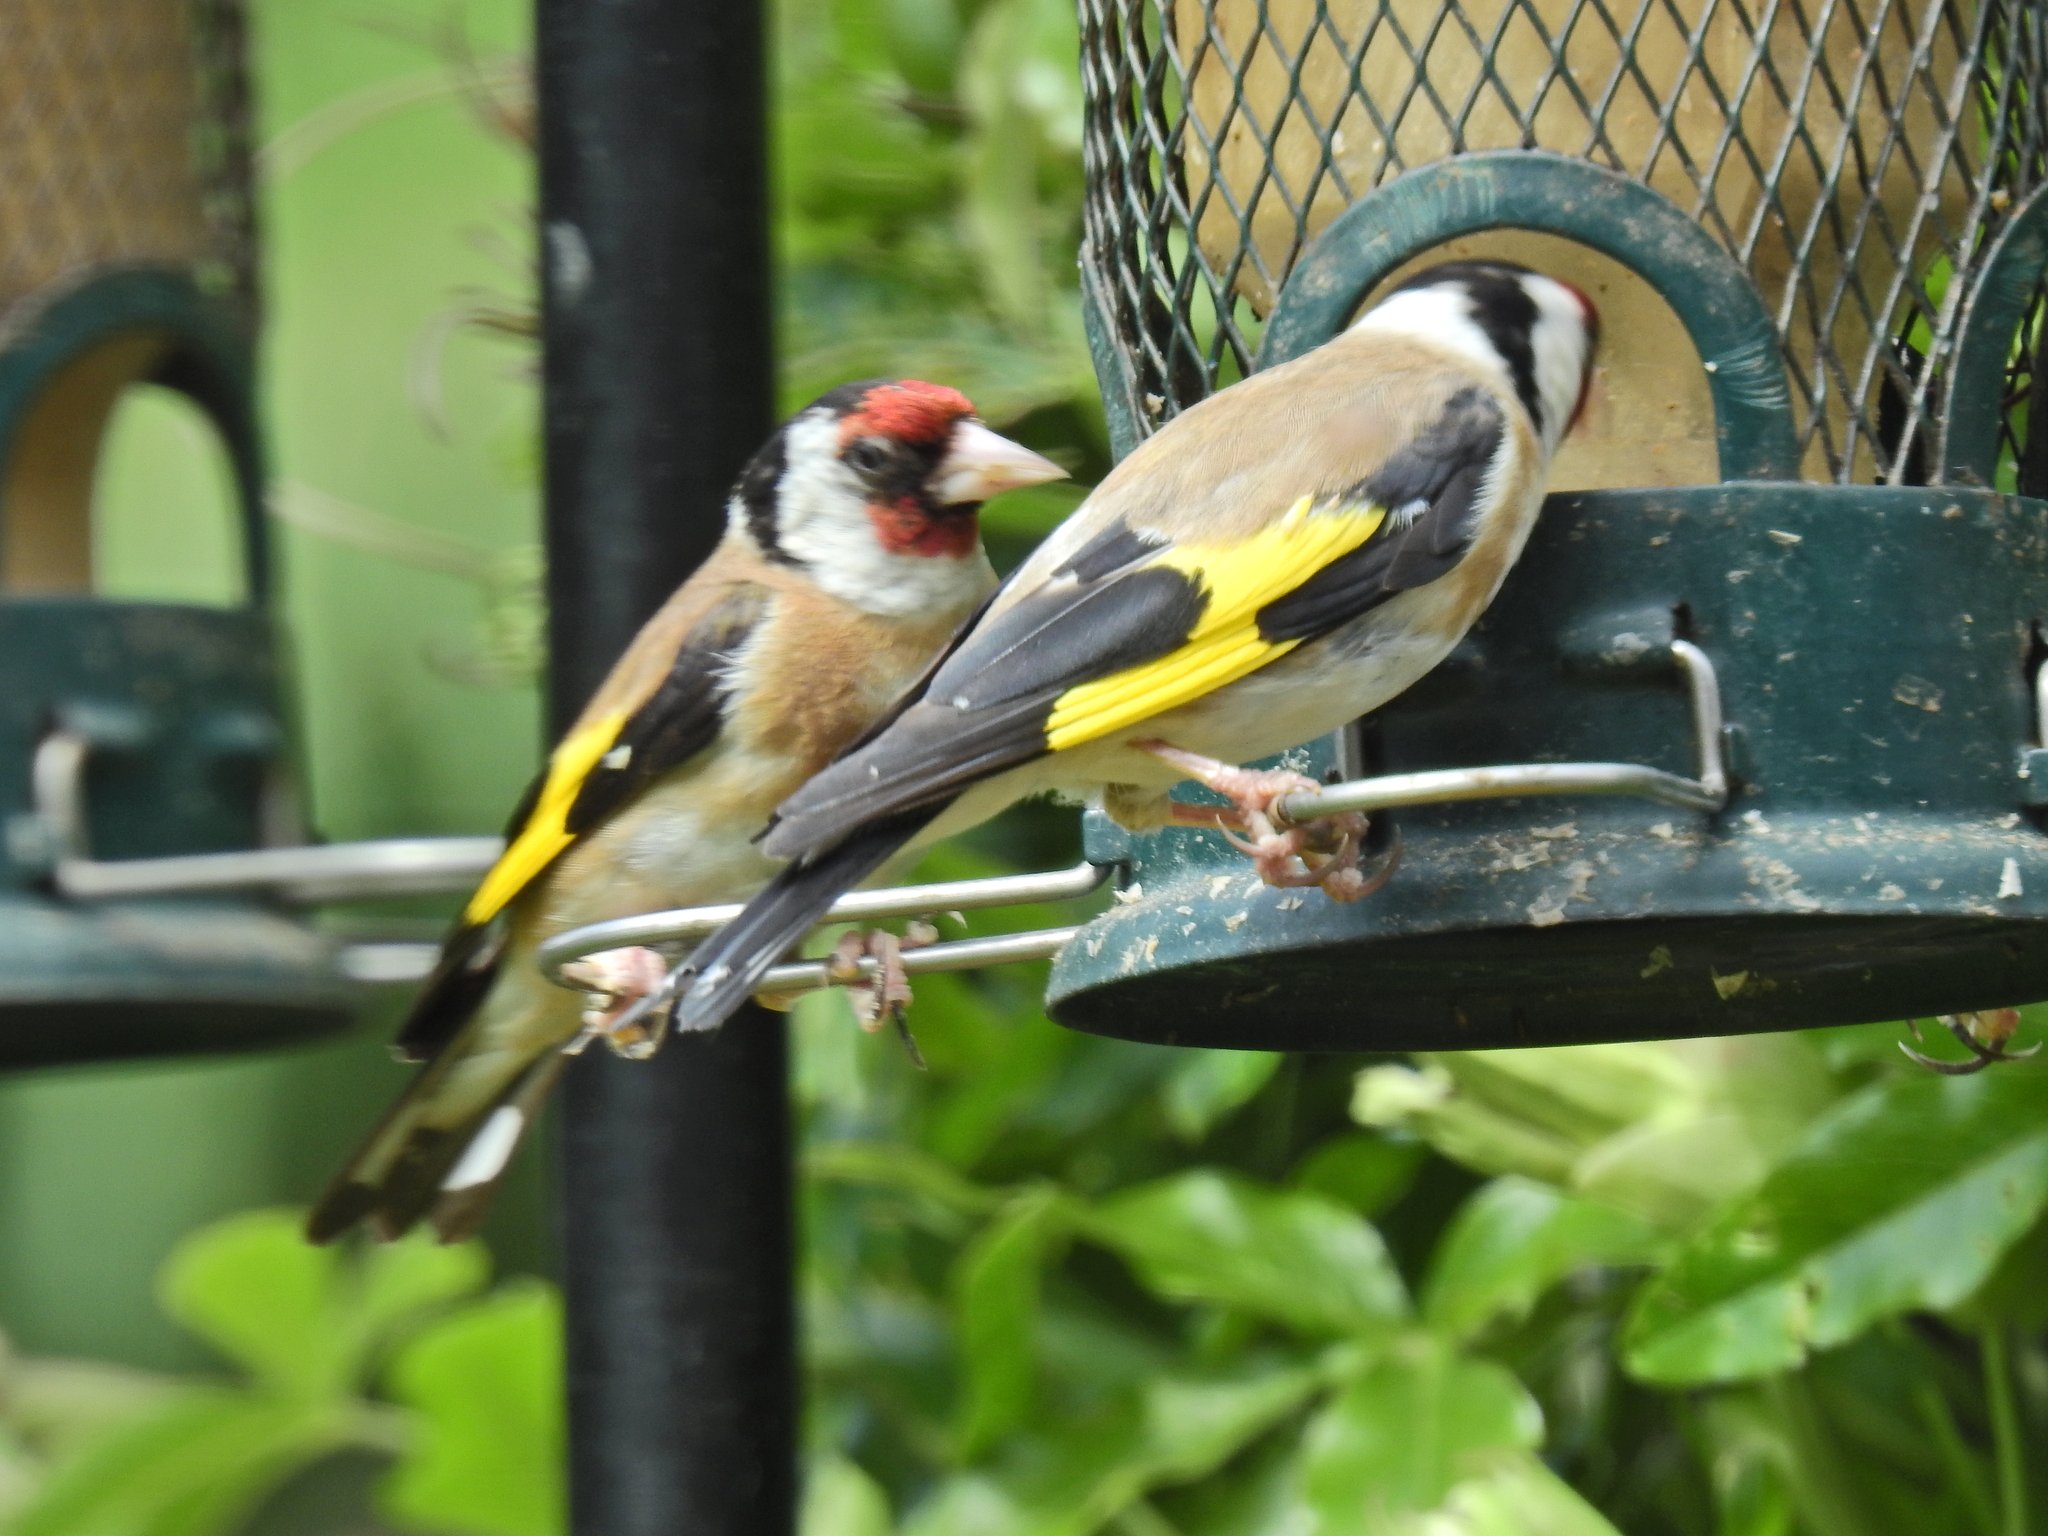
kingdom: Animalia
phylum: Chordata
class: Aves
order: Passeriformes
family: Fringillidae
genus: Carduelis
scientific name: Carduelis carduelis
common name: European goldfinch
